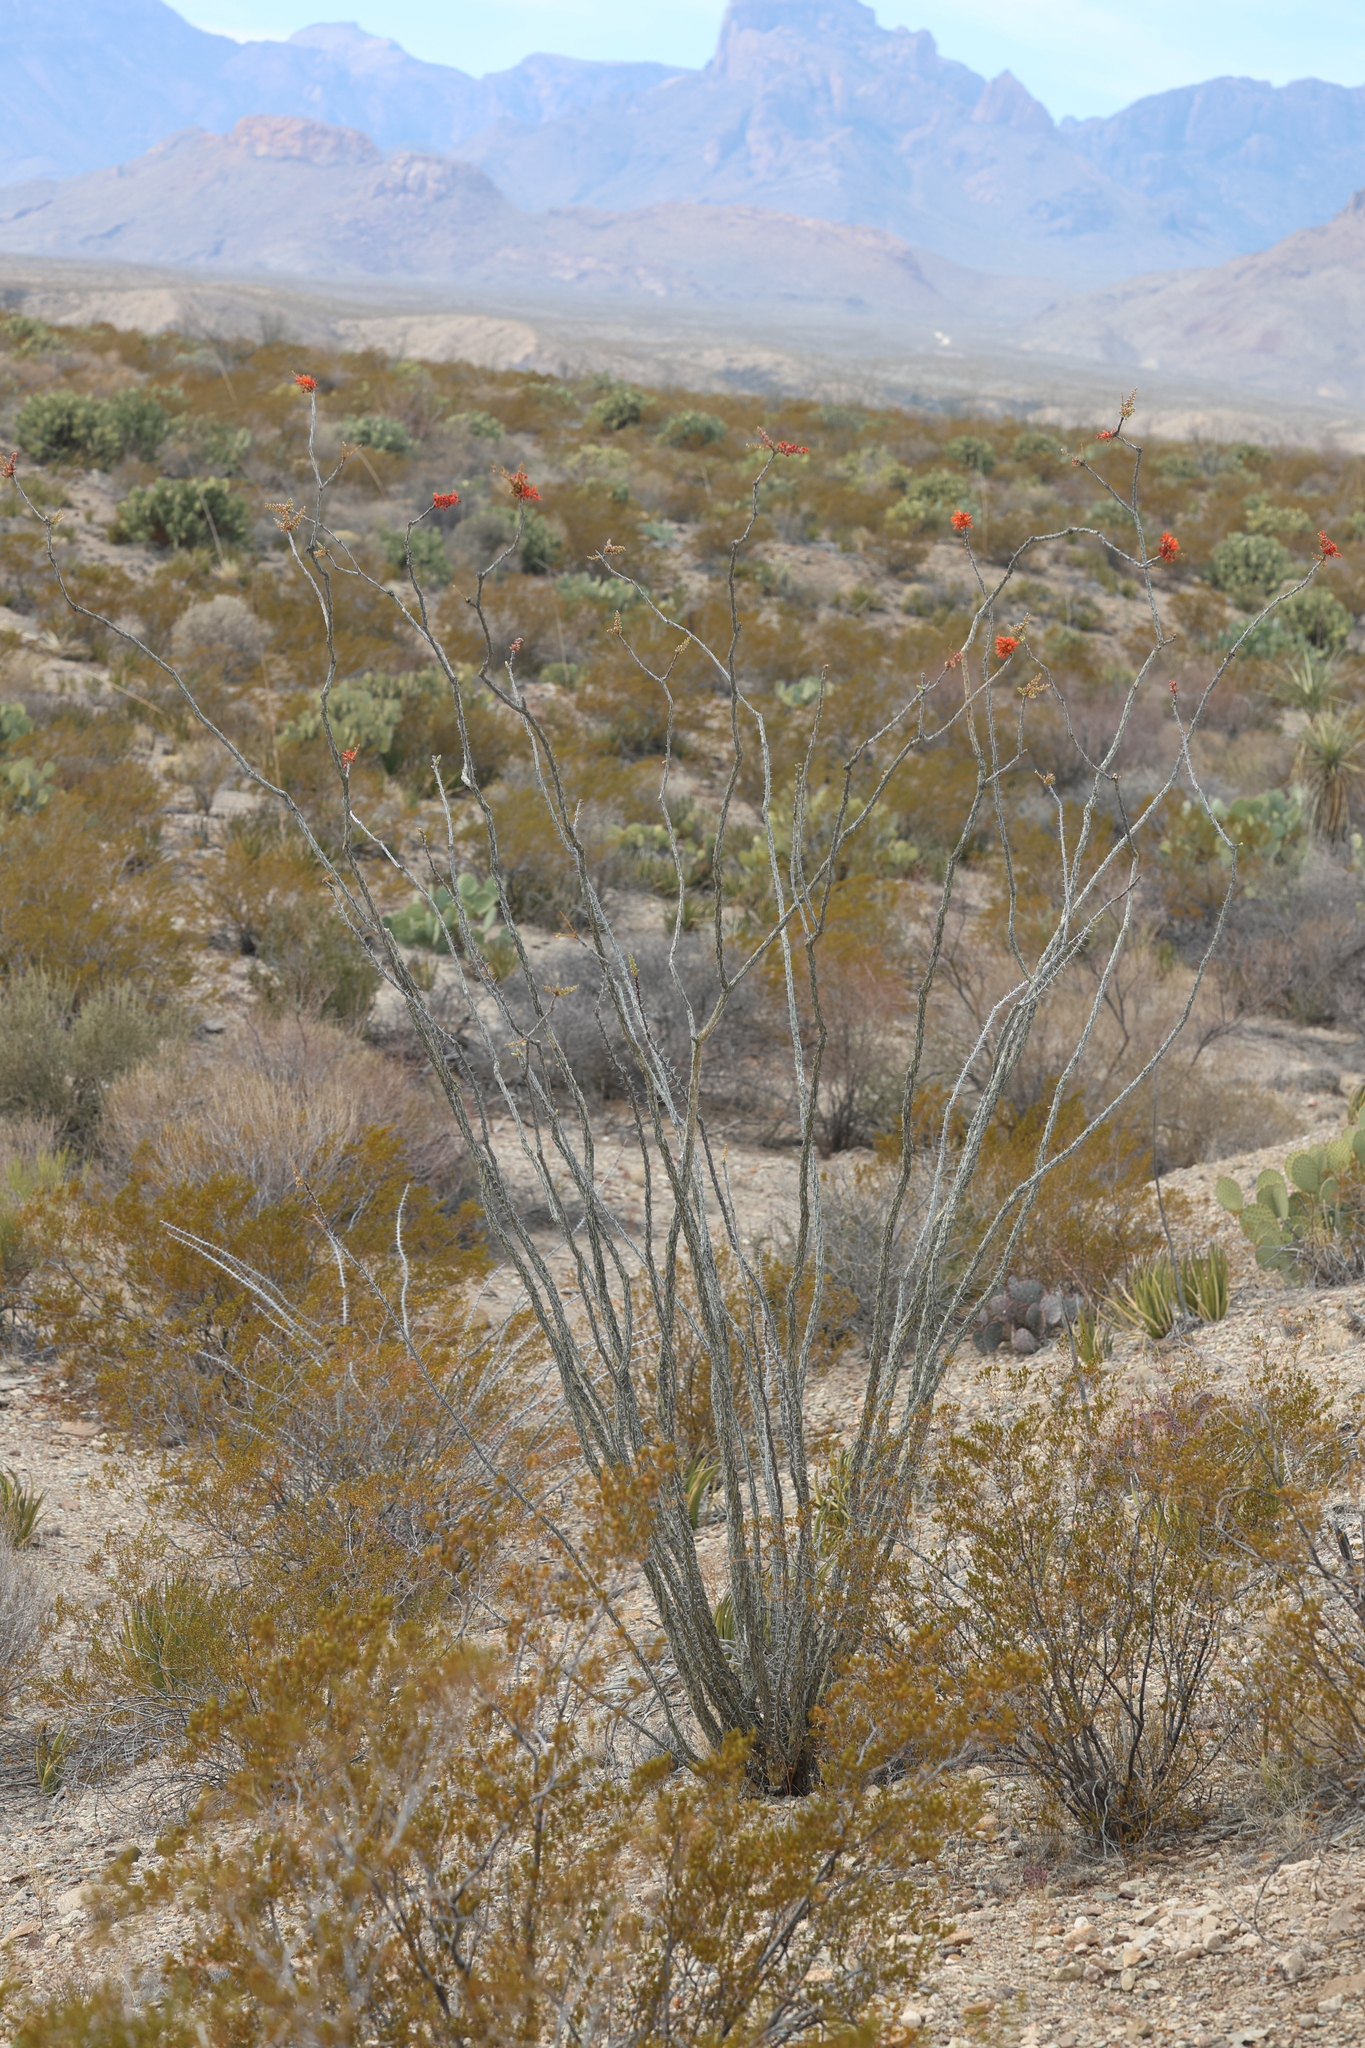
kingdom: Plantae
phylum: Tracheophyta
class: Magnoliopsida
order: Ericales
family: Fouquieriaceae
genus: Fouquieria
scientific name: Fouquieria splendens
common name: Vine-cactus
